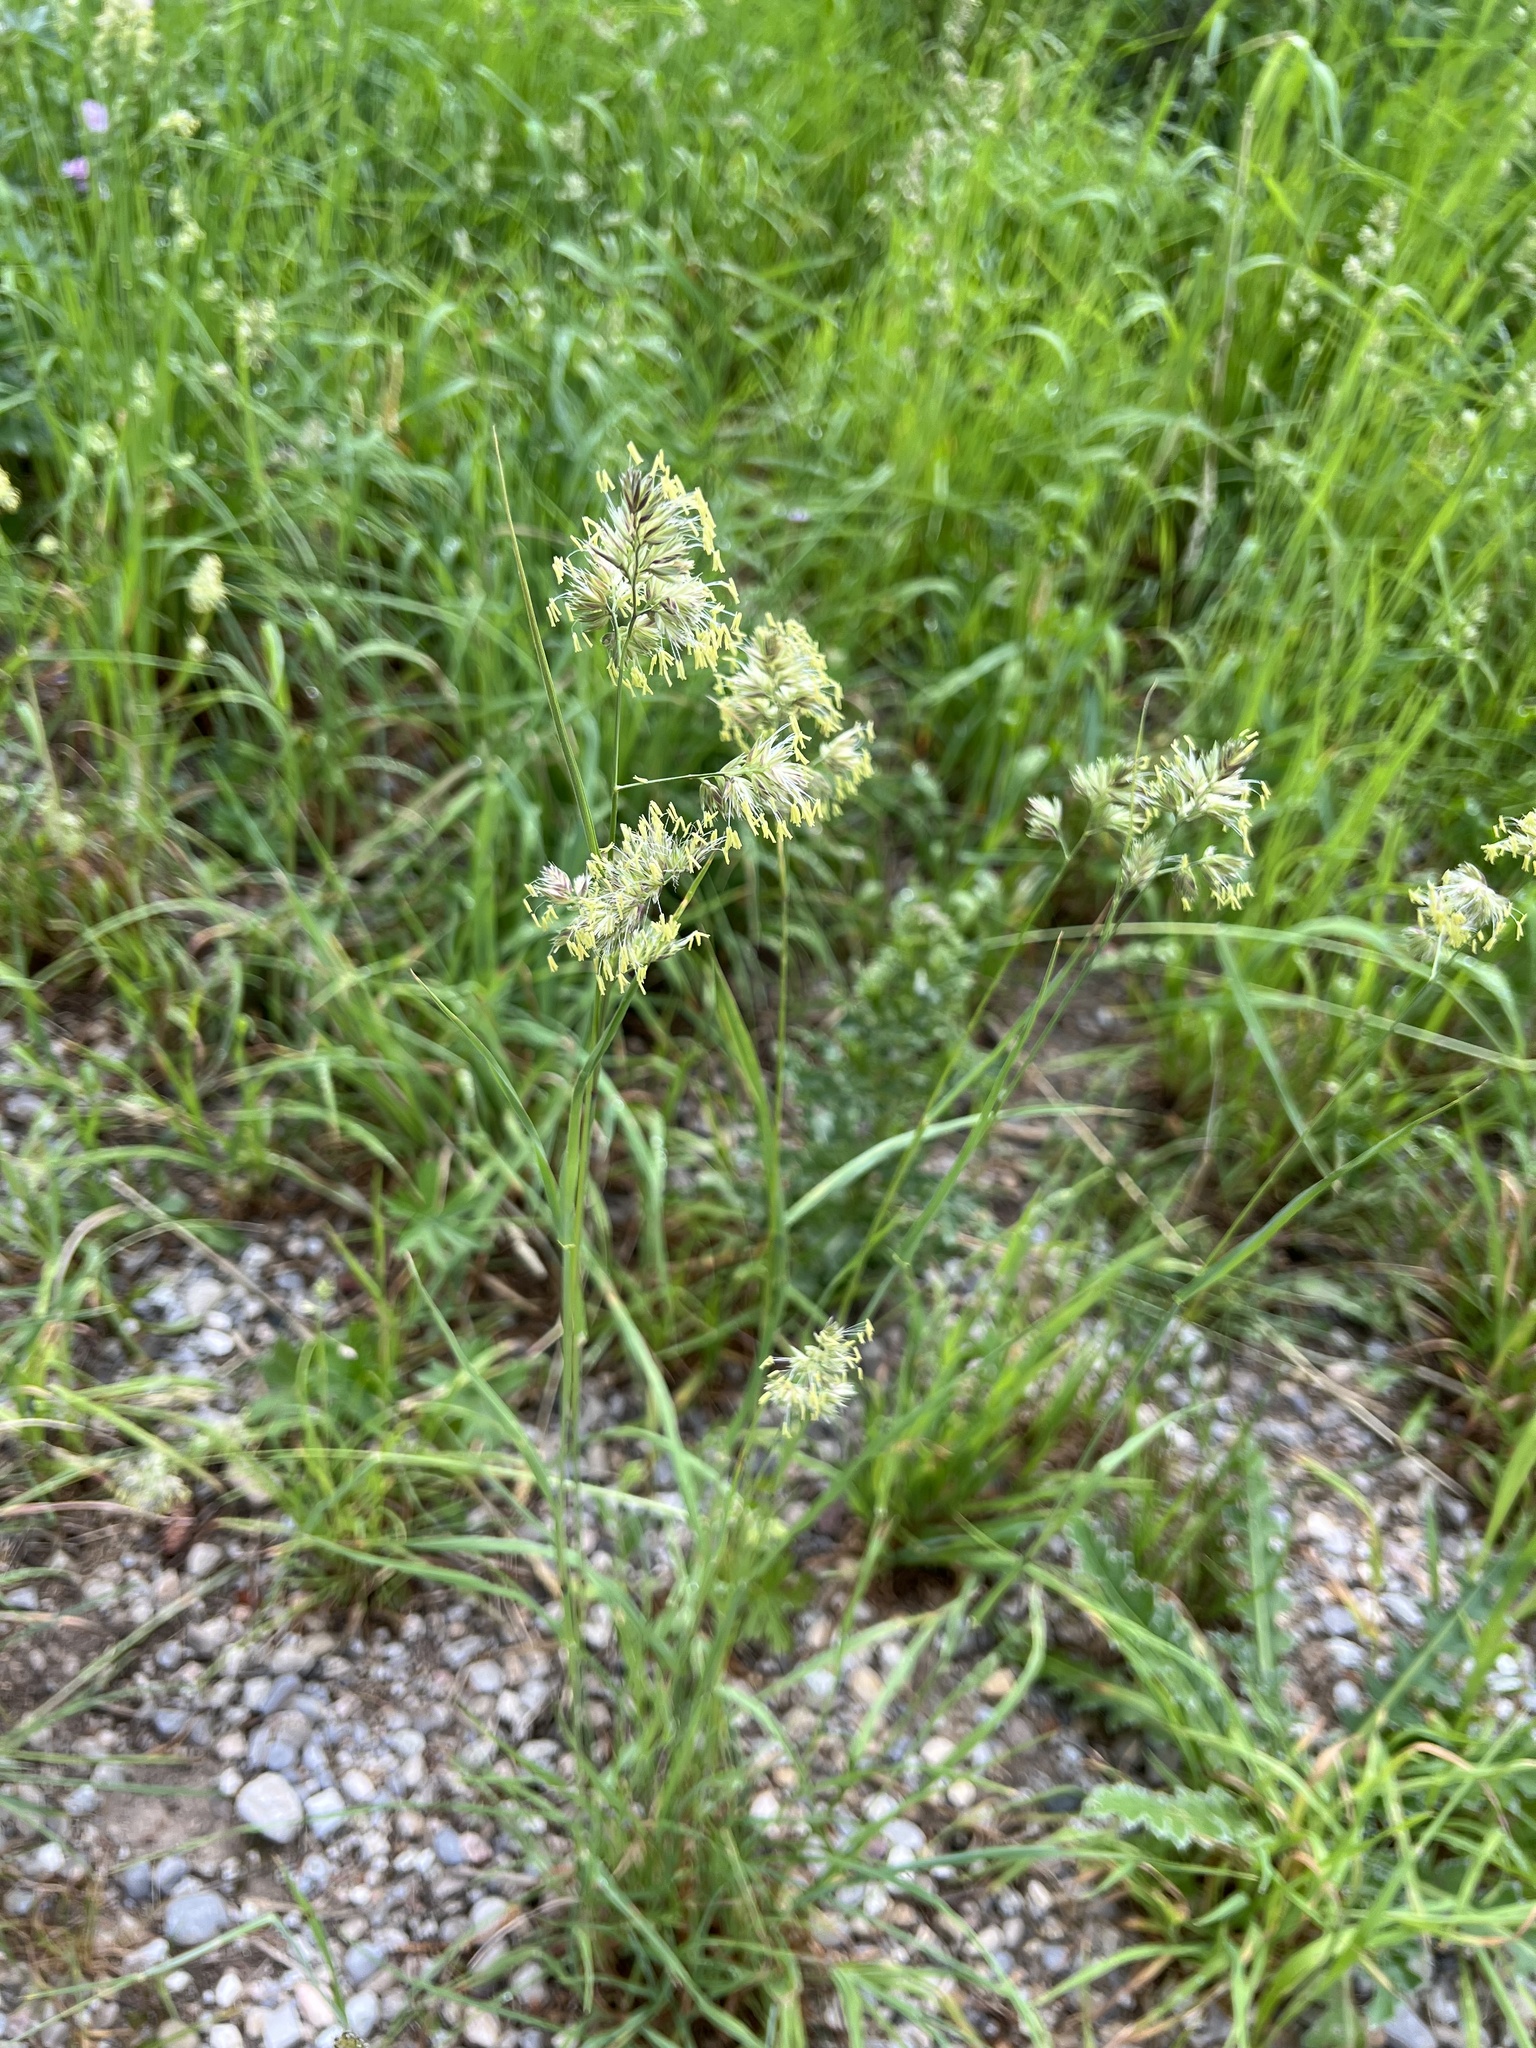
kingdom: Plantae
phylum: Tracheophyta
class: Liliopsida
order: Poales
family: Poaceae
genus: Dactylis
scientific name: Dactylis glomerata
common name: Orchardgrass
